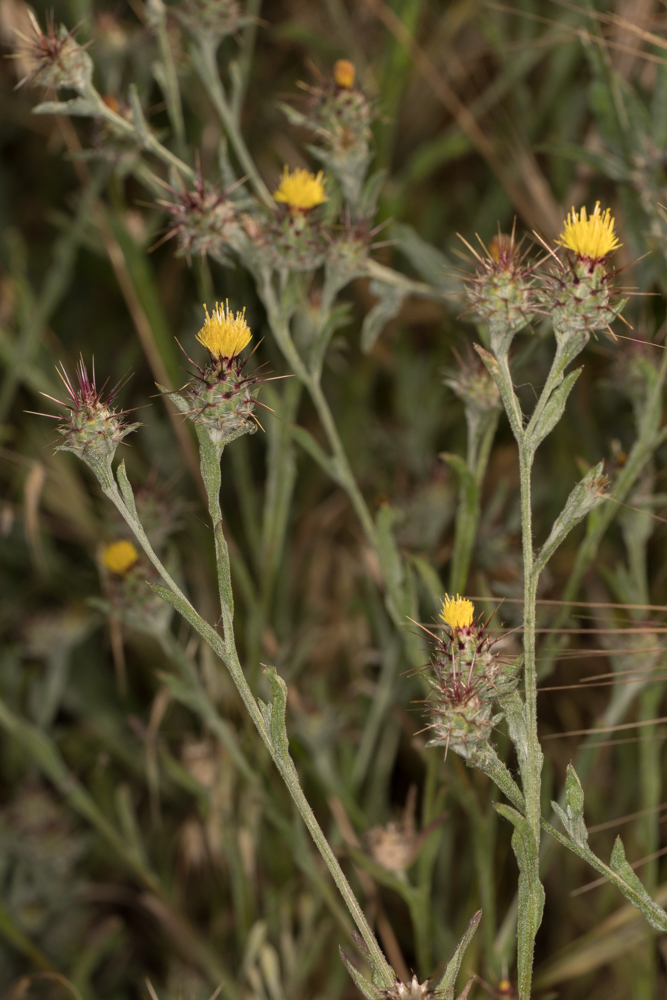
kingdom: Plantae
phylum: Tracheophyta
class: Magnoliopsida
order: Asterales
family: Asteraceae
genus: Centaurea
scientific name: Centaurea melitensis
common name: Maltese star-thistle
